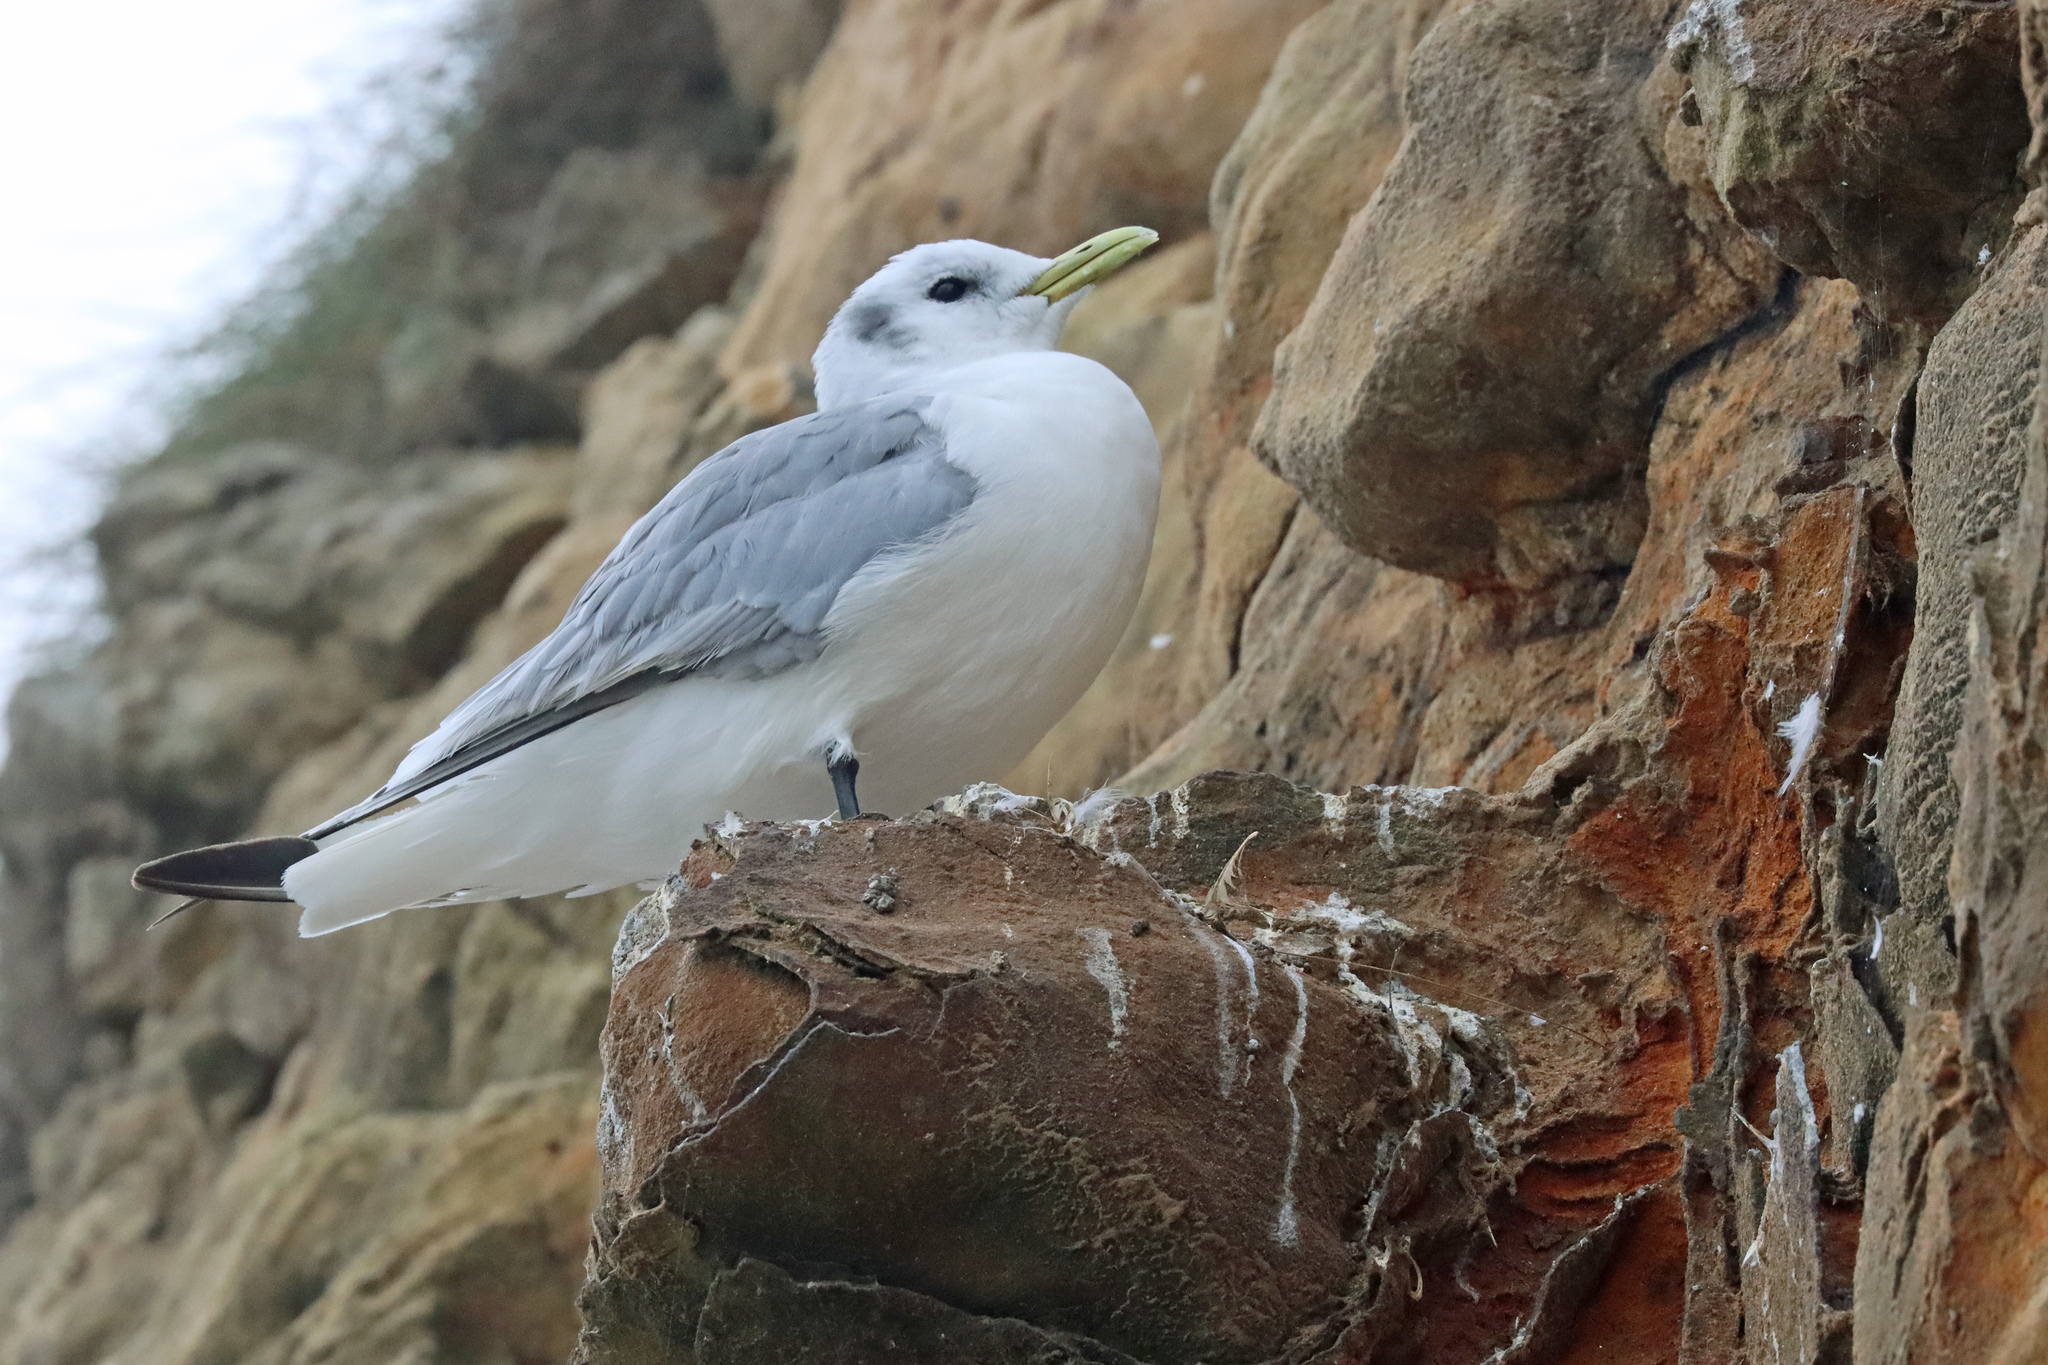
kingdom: Animalia
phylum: Chordata
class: Aves
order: Charadriiformes
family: Laridae
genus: Rissa
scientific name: Rissa tridactyla
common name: Black-legged kittiwake
